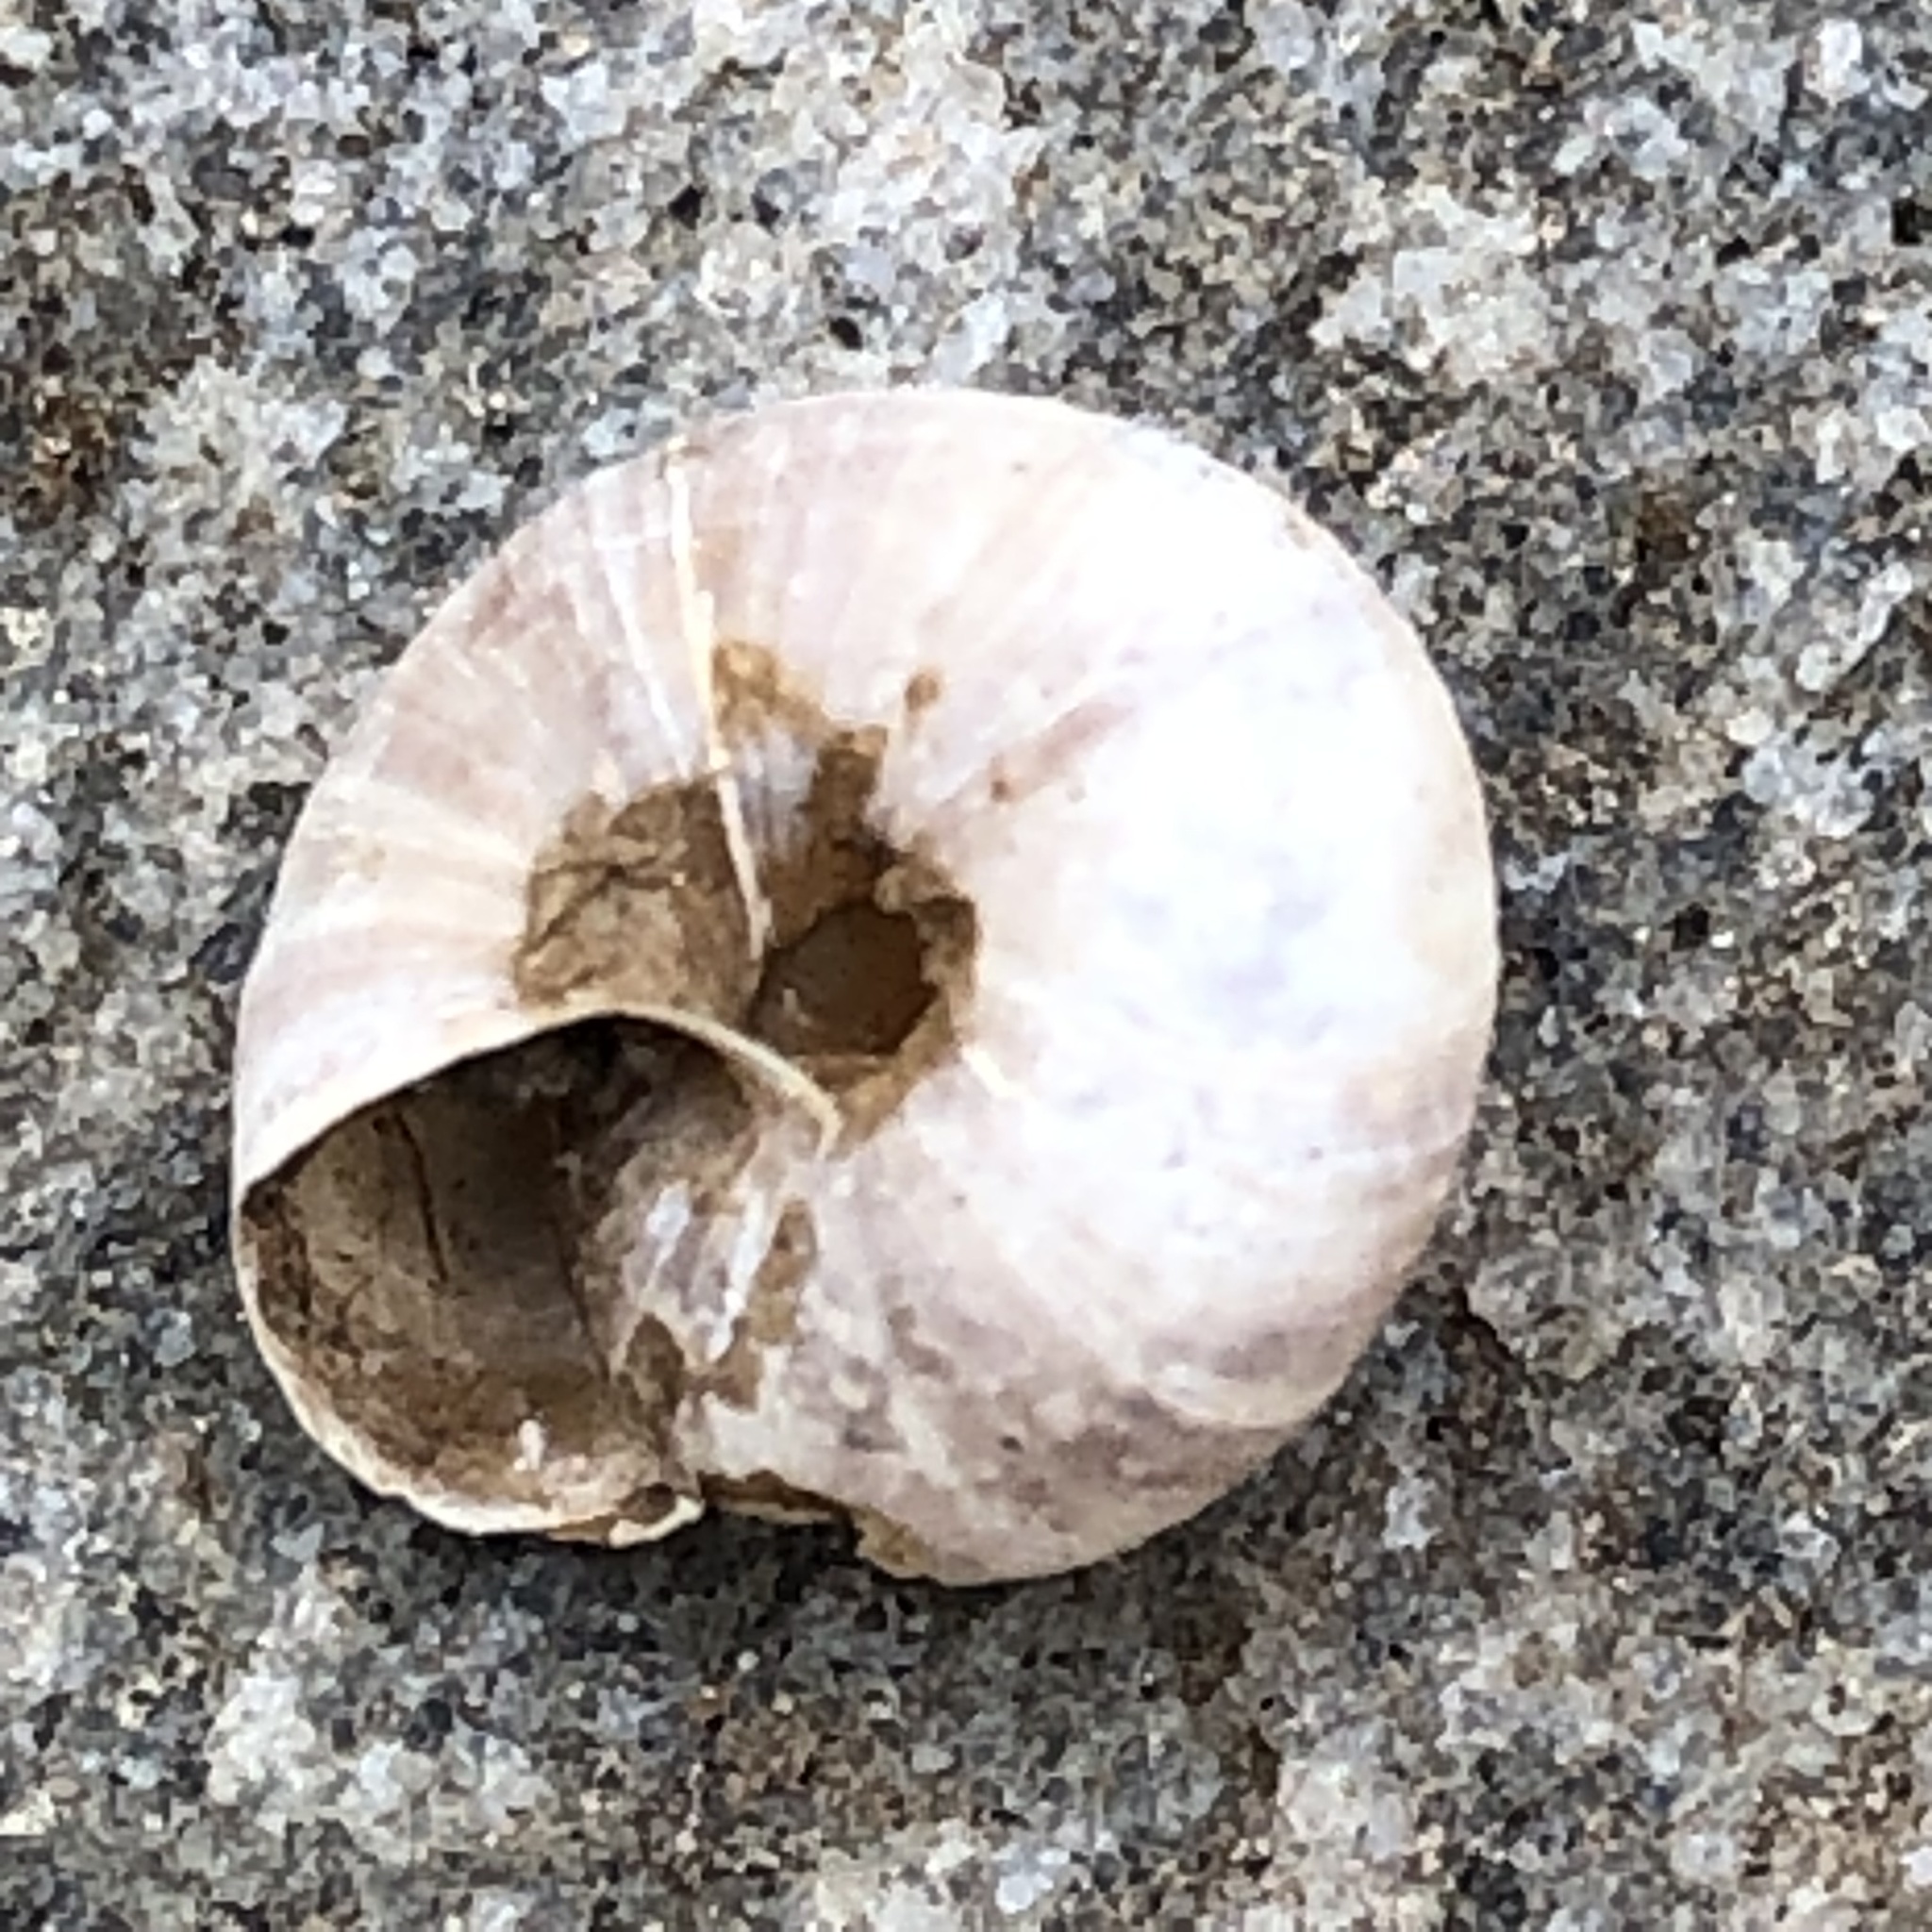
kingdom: Animalia
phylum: Mollusca
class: Gastropoda
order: Stylommatophora
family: Hygromiidae
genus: Trochulus
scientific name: Trochulus hispidus
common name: Hairy snail
